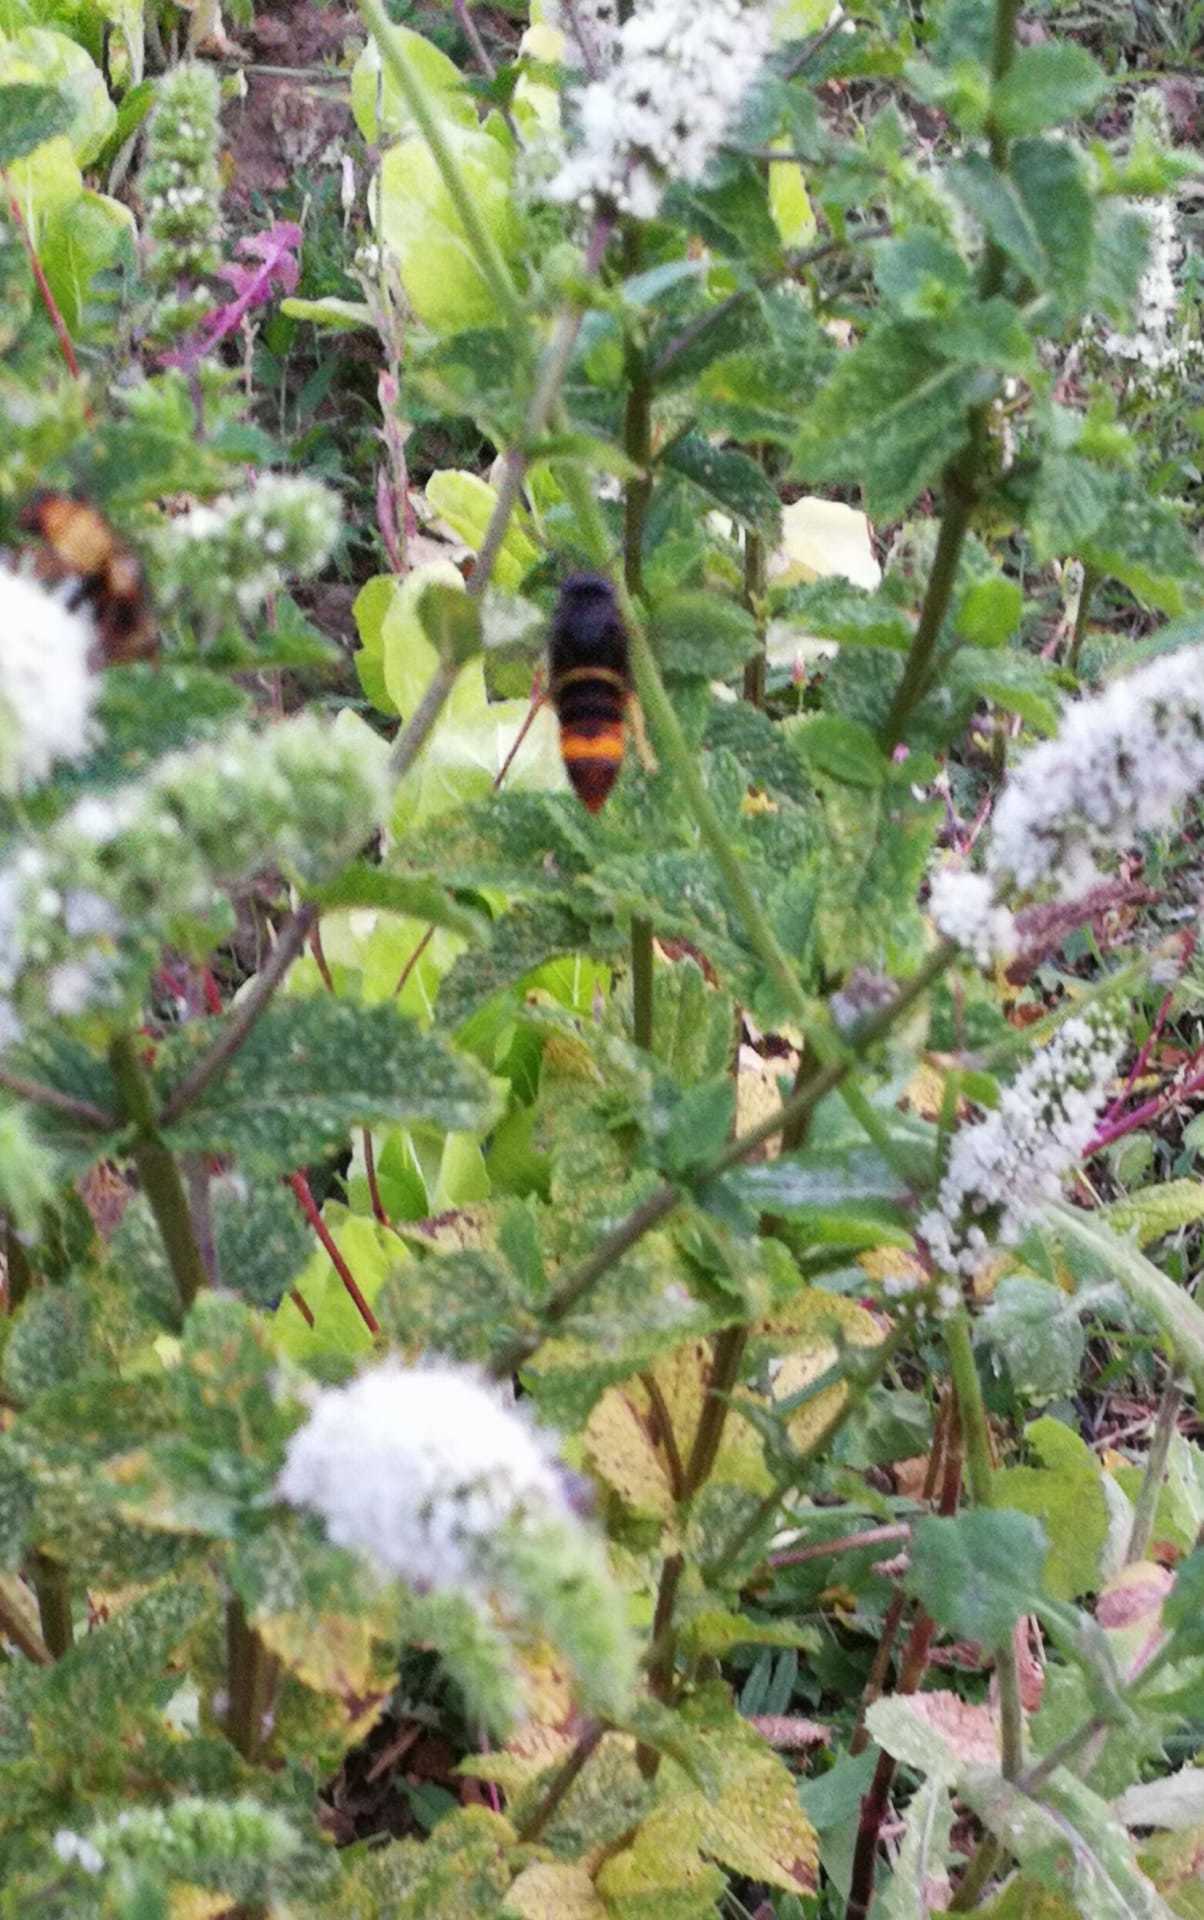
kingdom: Animalia
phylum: Arthropoda
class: Insecta
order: Hymenoptera
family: Vespidae
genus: Vespa
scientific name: Vespa velutina
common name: Asian hornet
